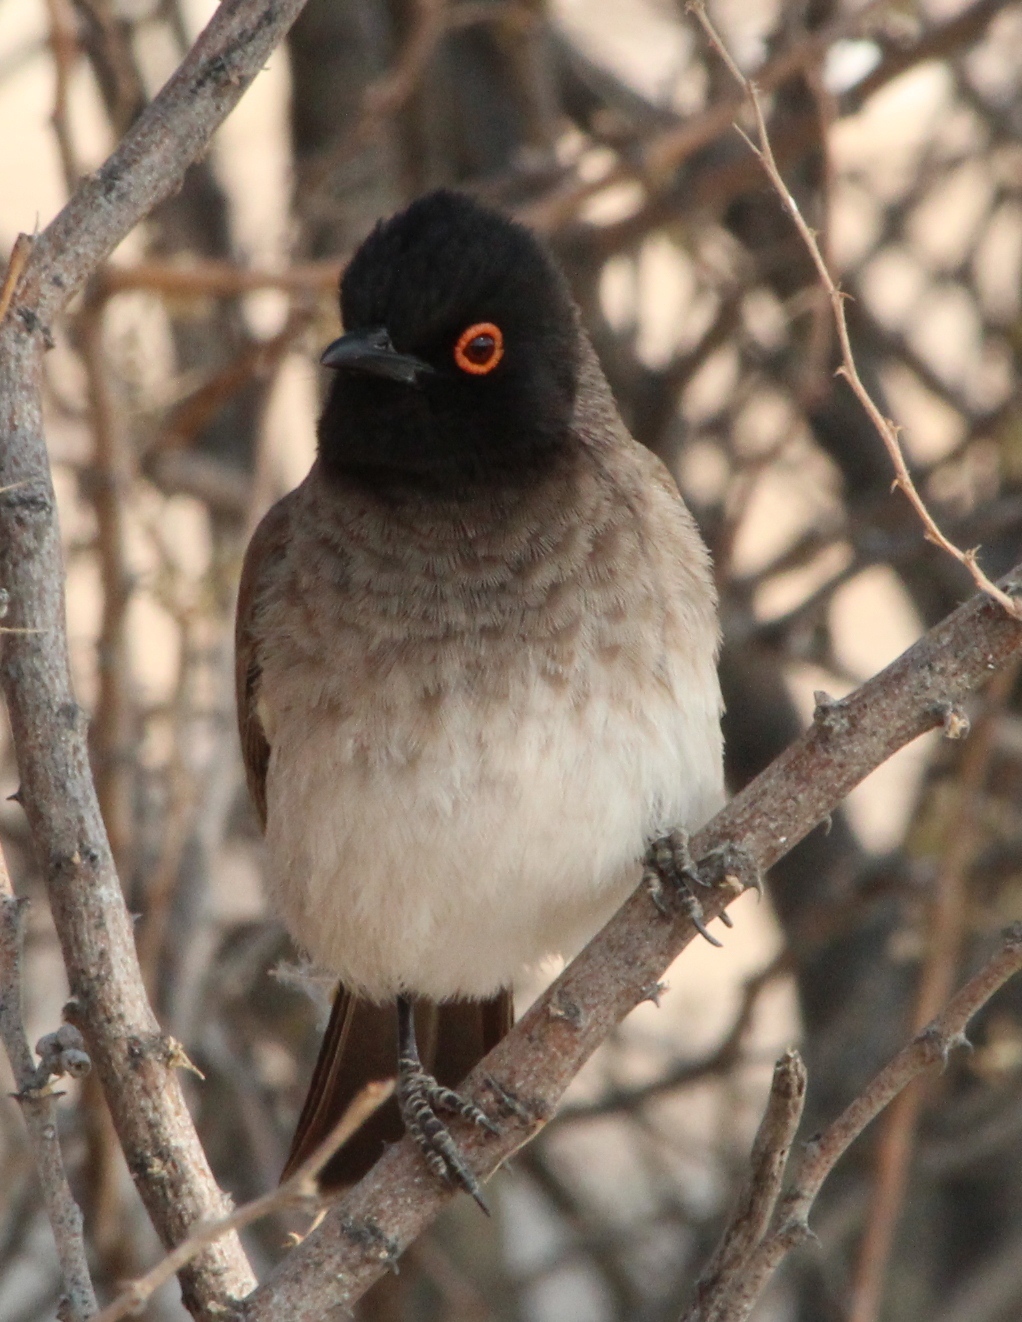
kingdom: Animalia
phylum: Chordata
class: Aves
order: Passeriformes
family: Pycnonotidae
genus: Pycnonotus
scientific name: Pycnonotus nigricans
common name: African red-eyed bulbul
